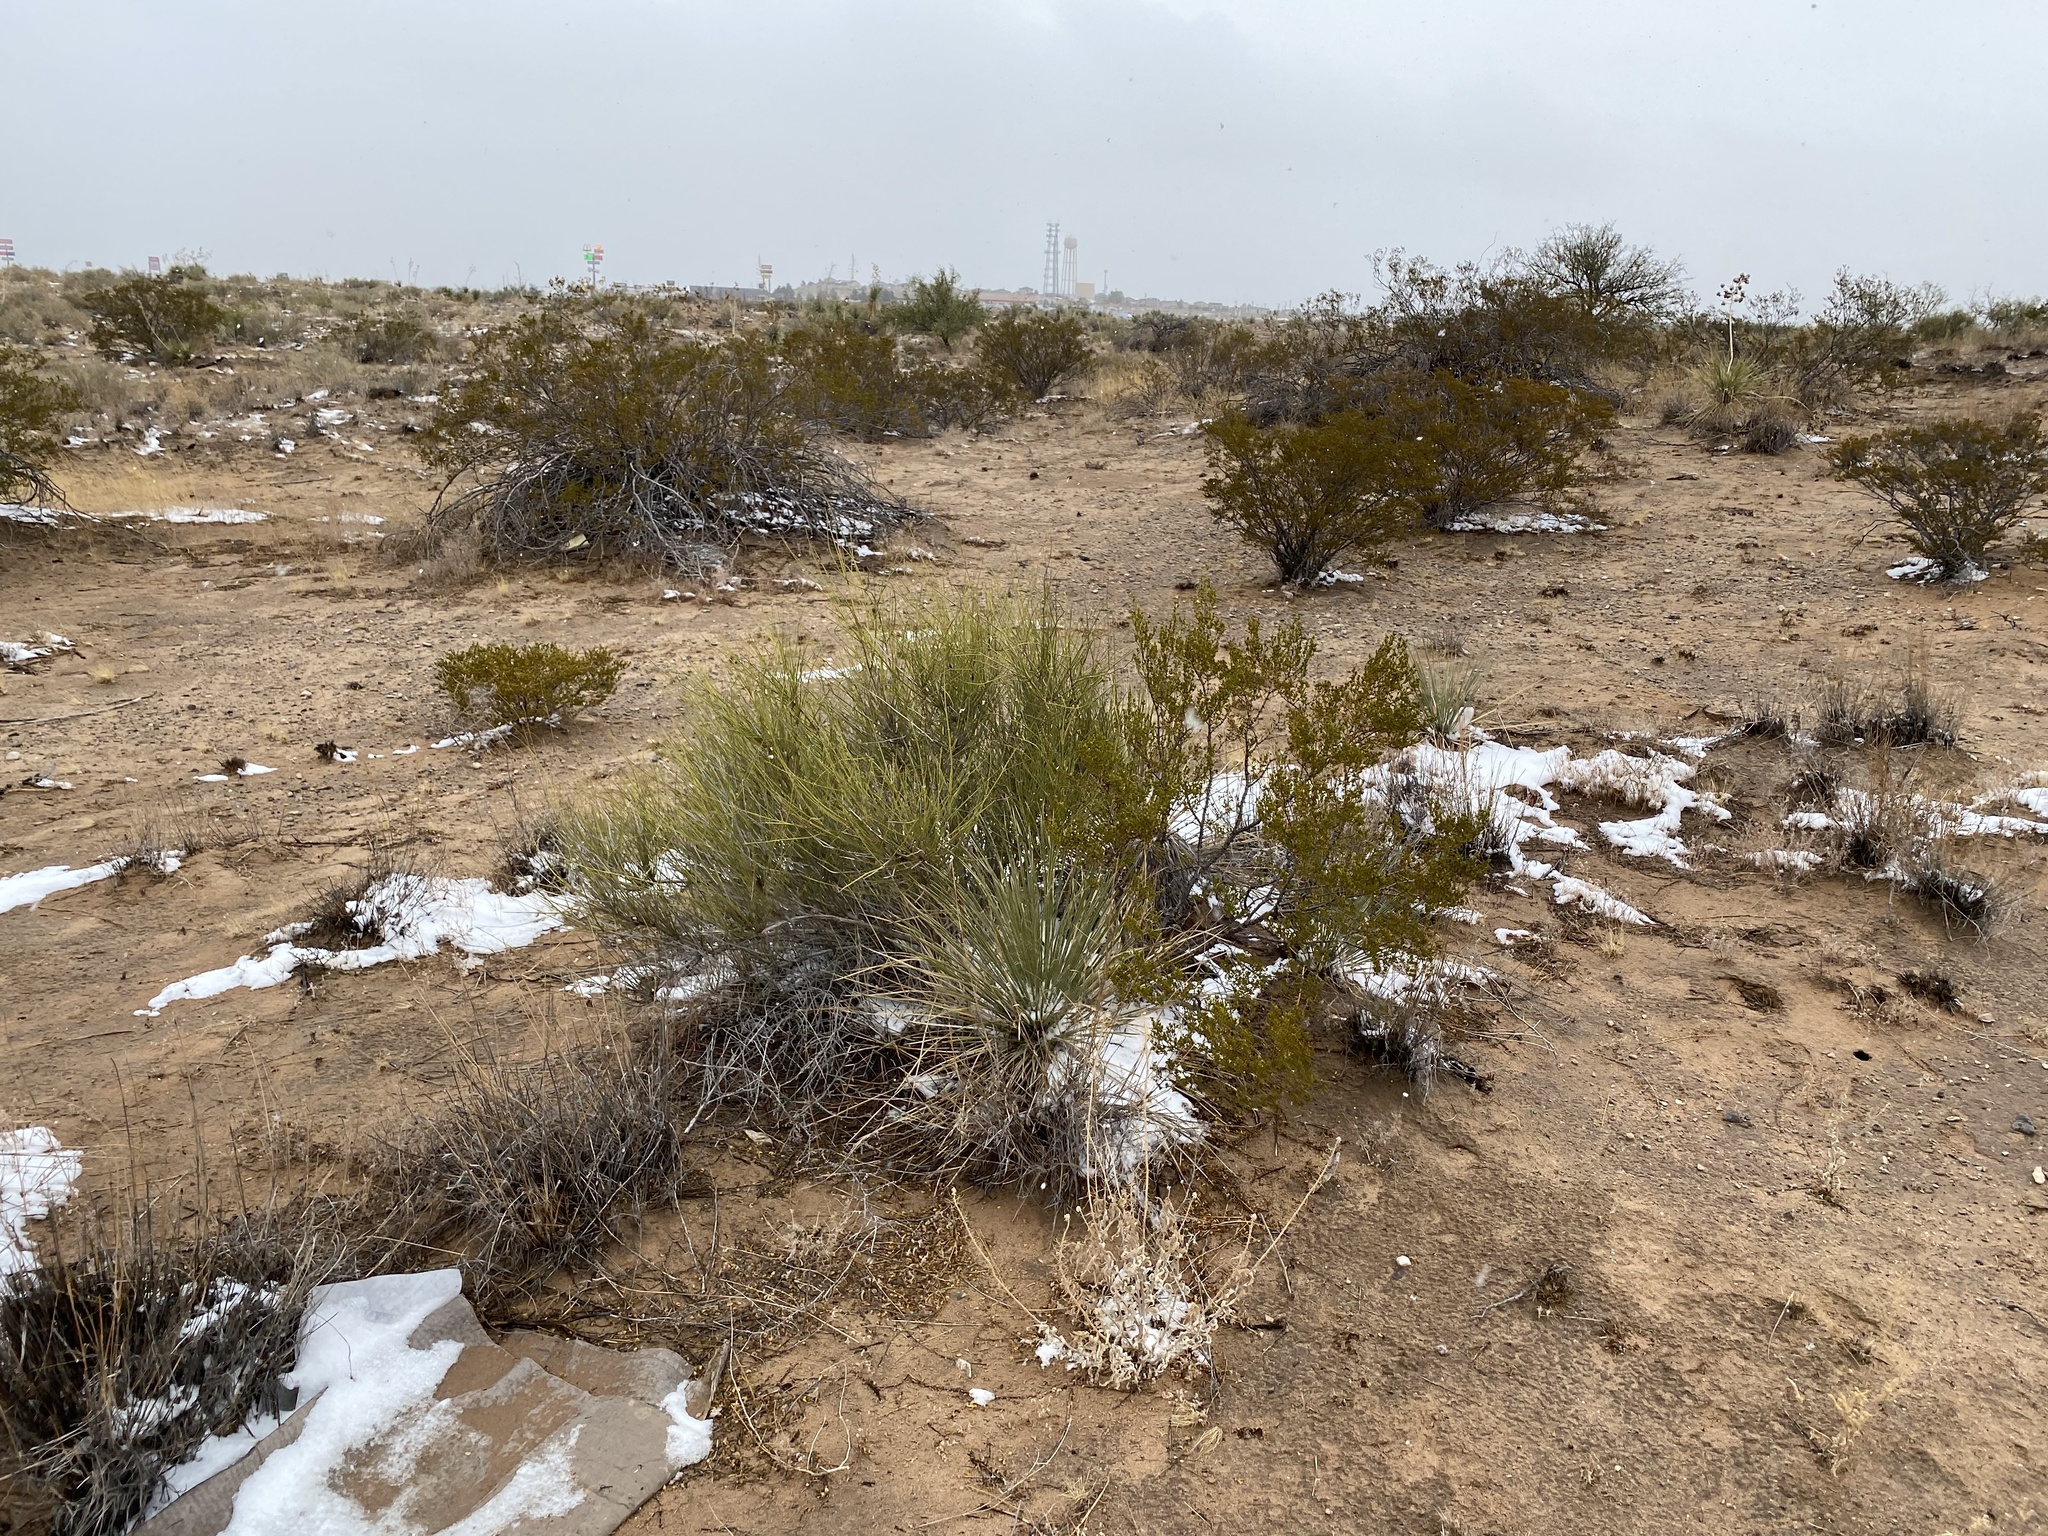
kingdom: Plantae
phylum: Tracheophyta
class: Gnetopsida
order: Ephedrales
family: Ephedraceae
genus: Ephedra
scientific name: Ephedra trifurca
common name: Mexican-tea
